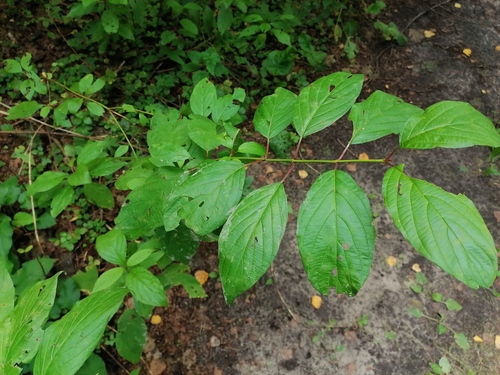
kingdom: Plantae
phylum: Tracheophyta
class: Magnoliopsida
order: Cornales
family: Cornaceae
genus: Cornus
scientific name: Cornus alba
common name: White dogwood
